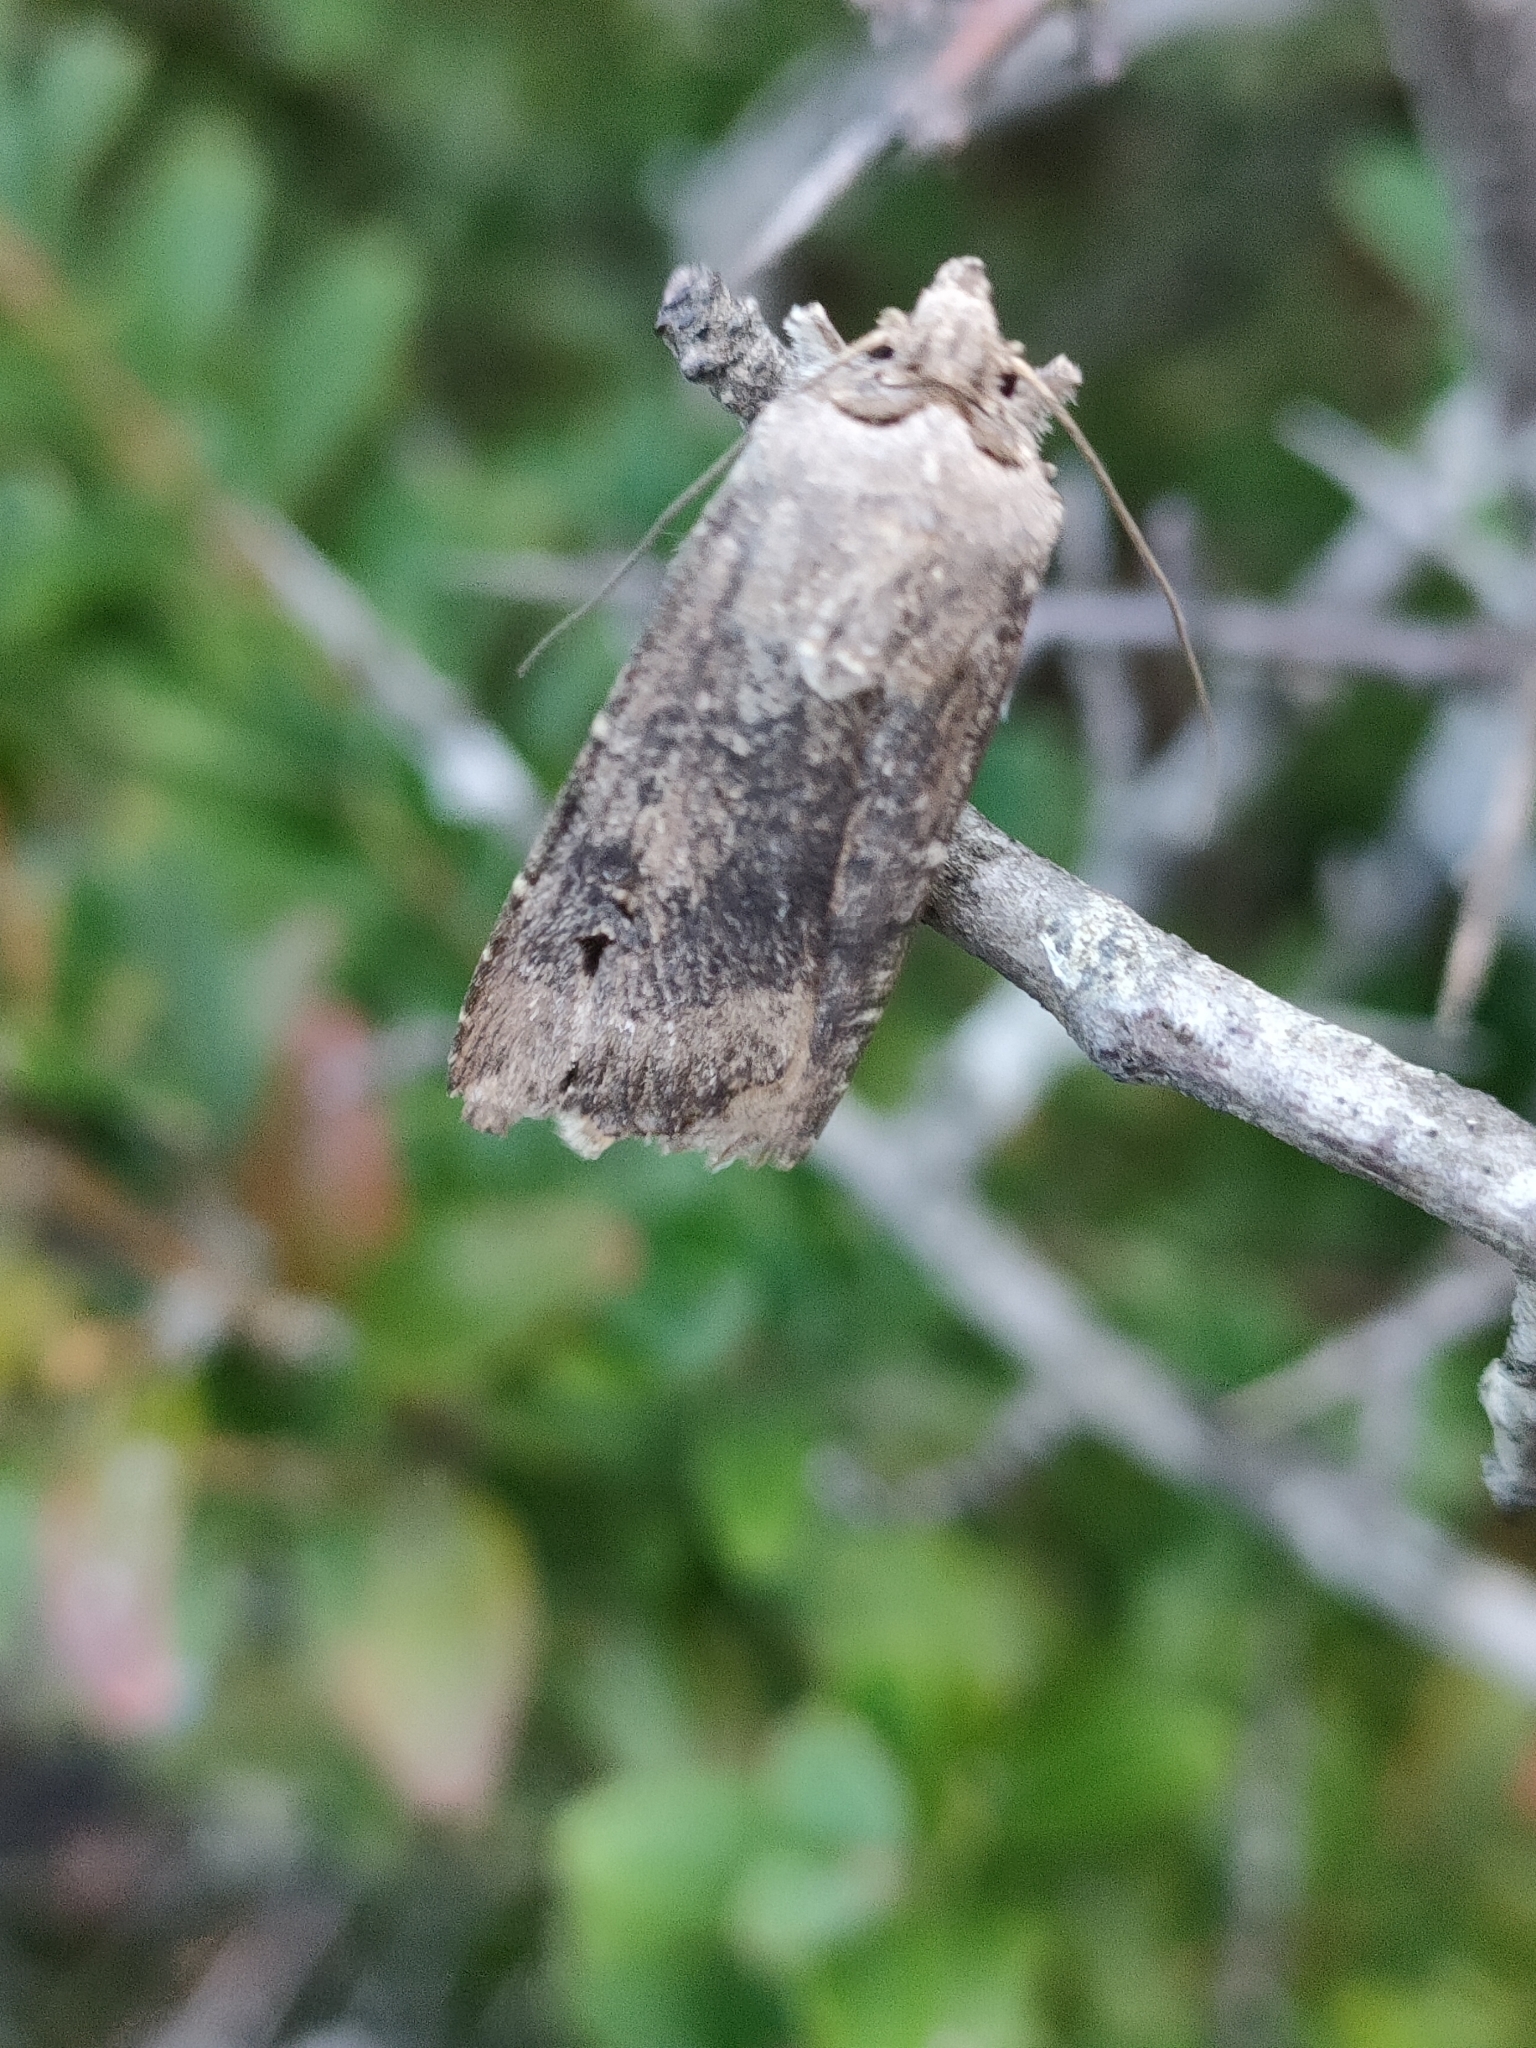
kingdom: Animalia
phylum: Arthropoda
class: Insecta
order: Lepidoptera
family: Noctuidae
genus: Agrotis
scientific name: Agrotis ipsilon
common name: Dark sword-grass
